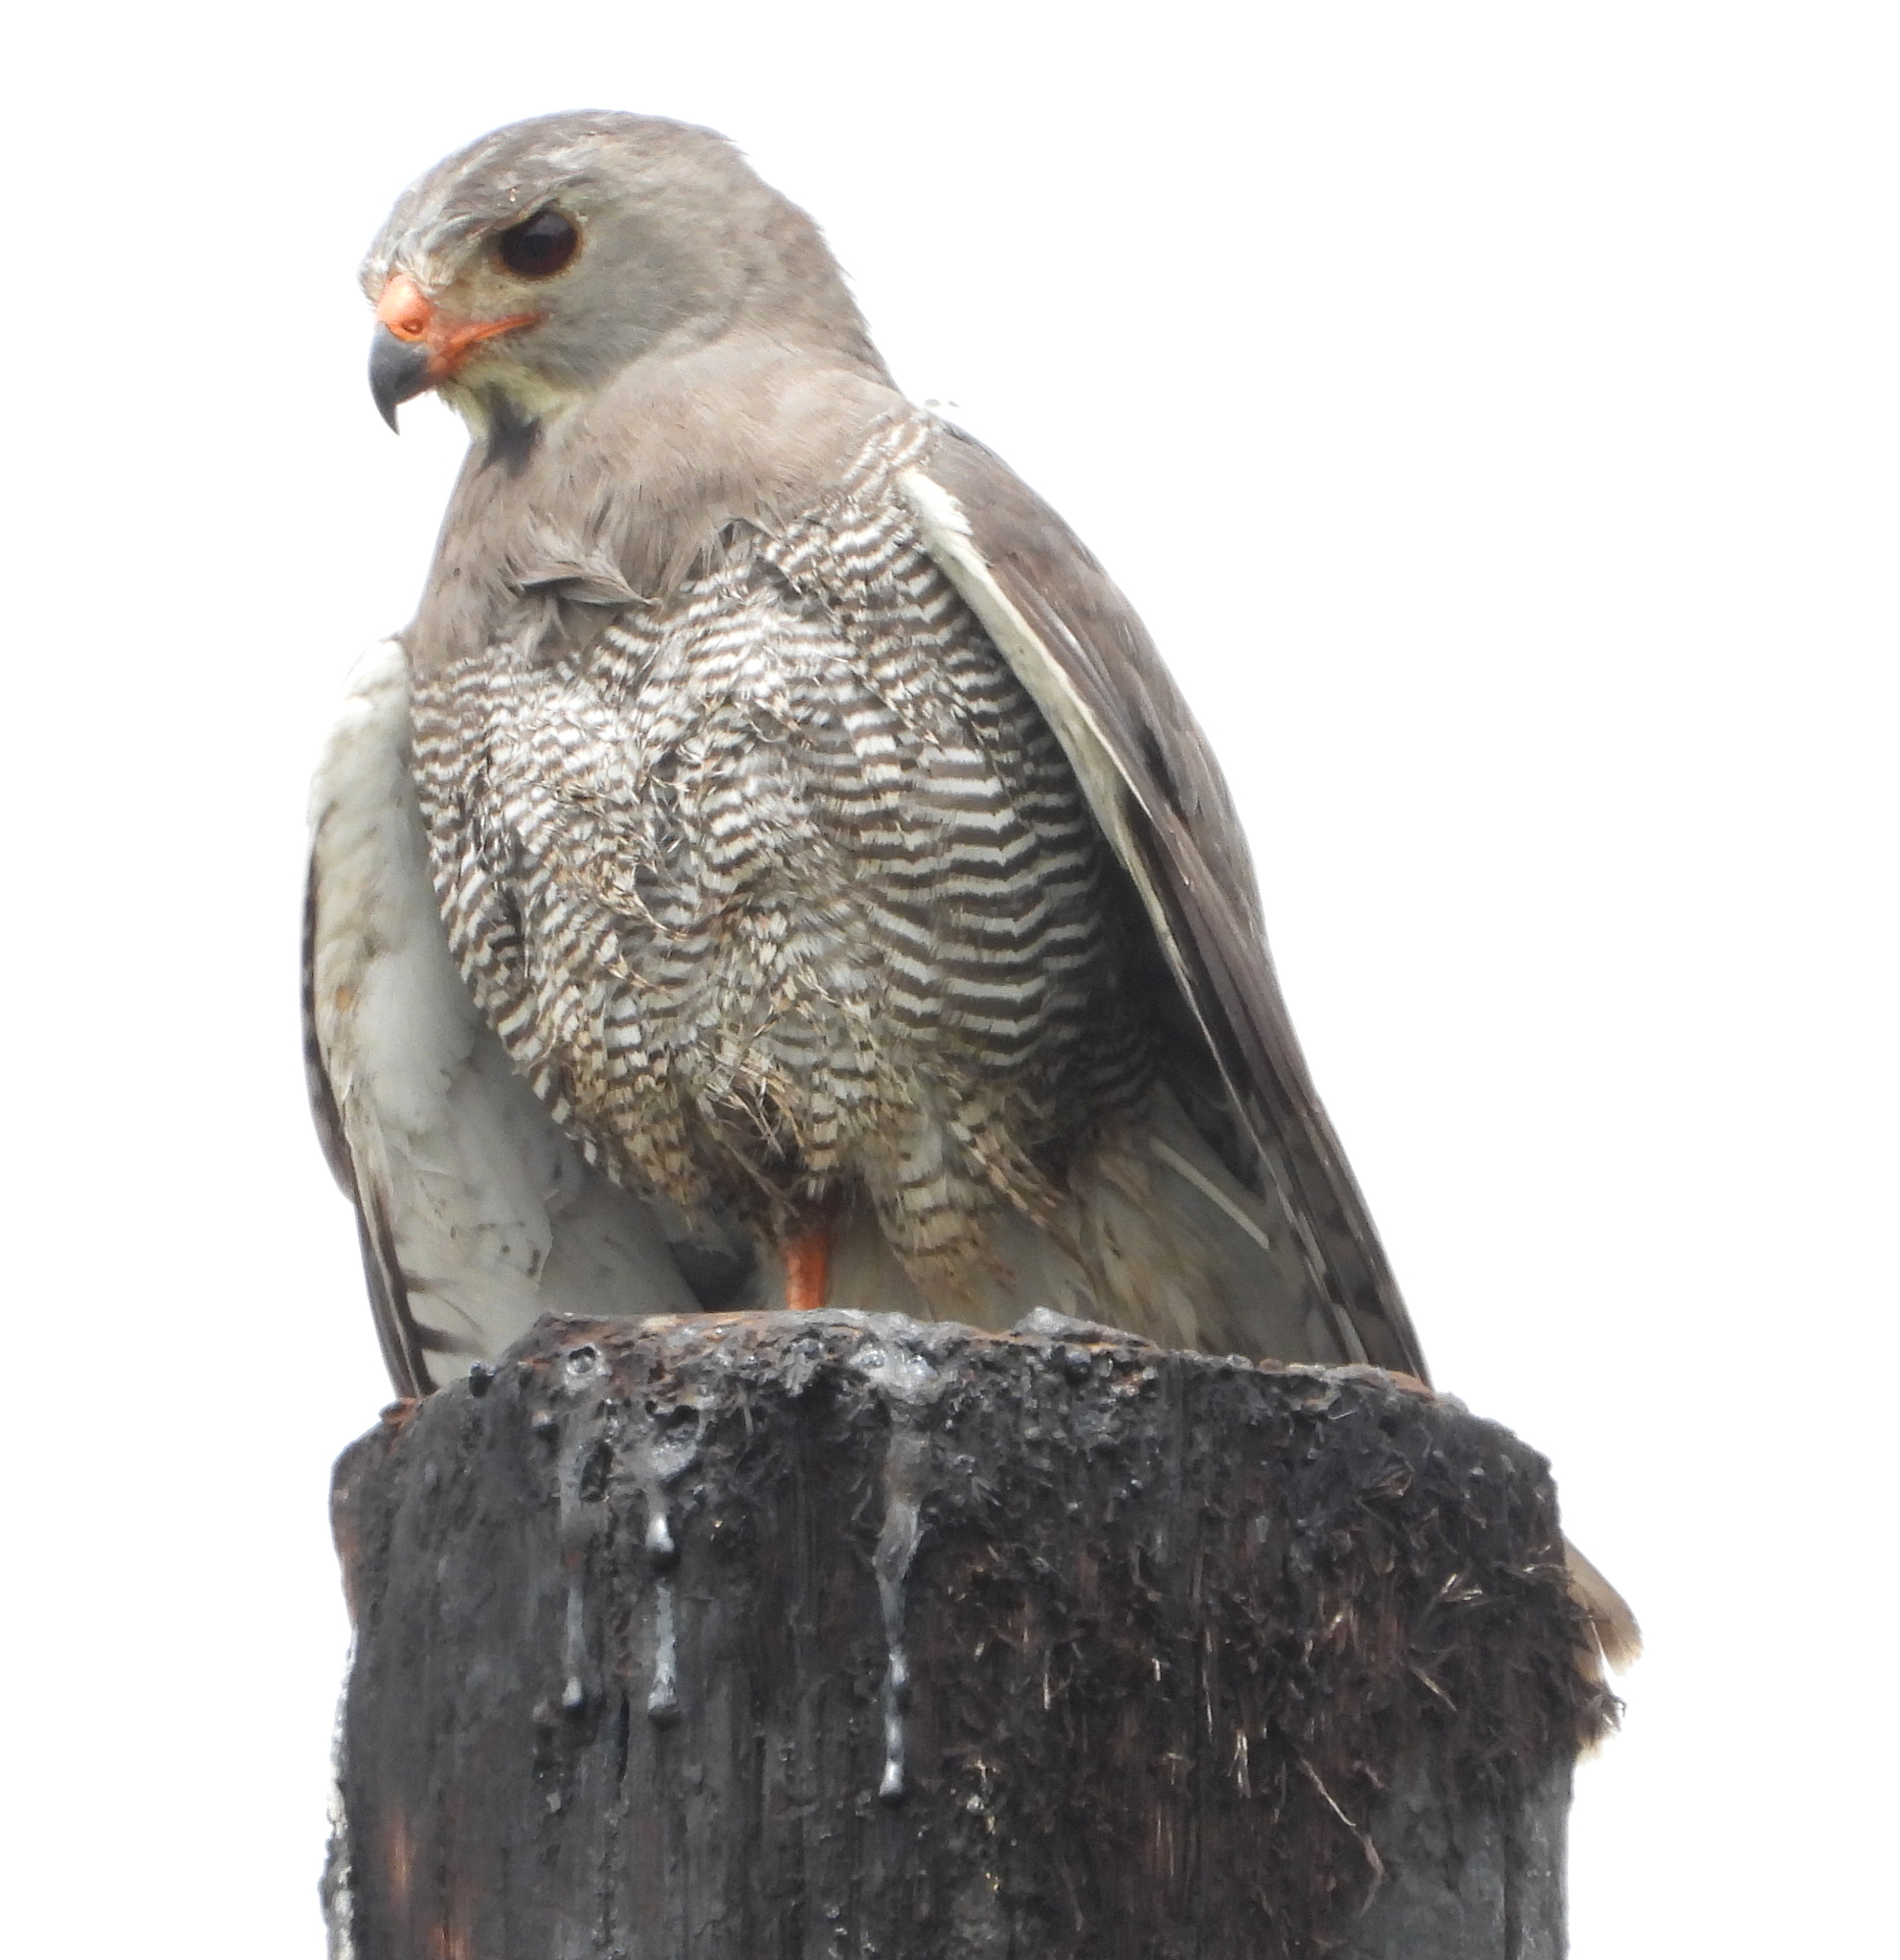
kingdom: Animalia
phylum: Chordata
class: Aves
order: Accipitriformes
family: Accipitridae
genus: Kaupifalco
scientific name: Kaupifalco monogrammicus
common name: Lizard buzzard
